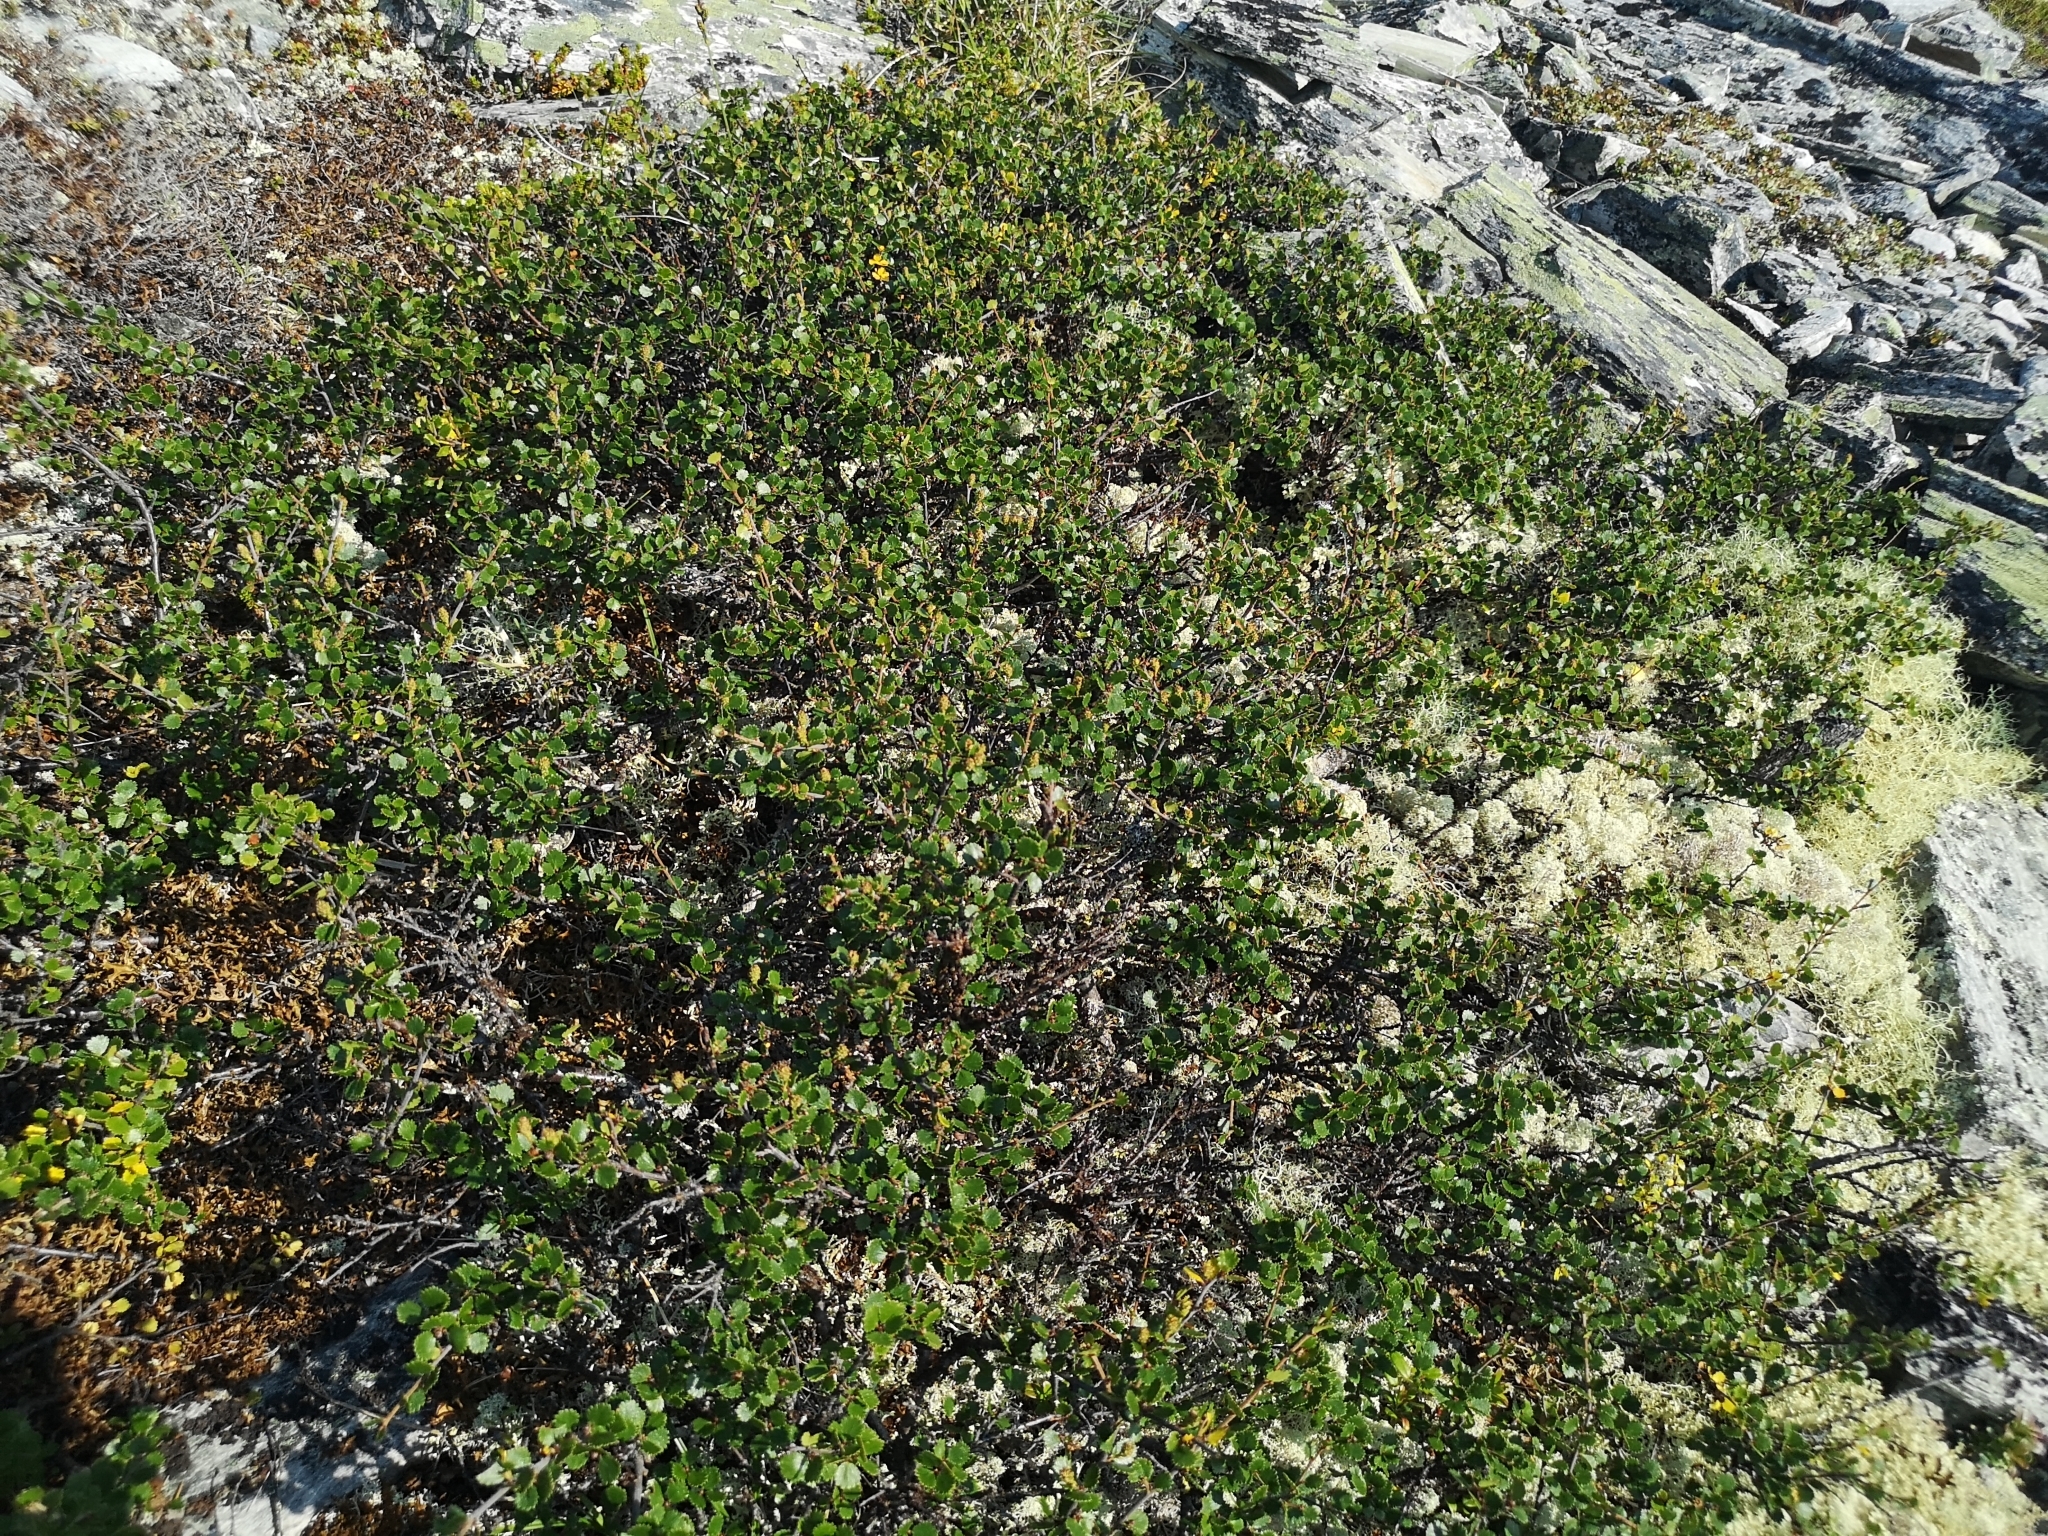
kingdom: Plantae
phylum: Tracheophyta
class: Magnoliopsida
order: Fagales
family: Betulaceae
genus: Betula
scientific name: Betula nana
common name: Arctic dwarf birch
